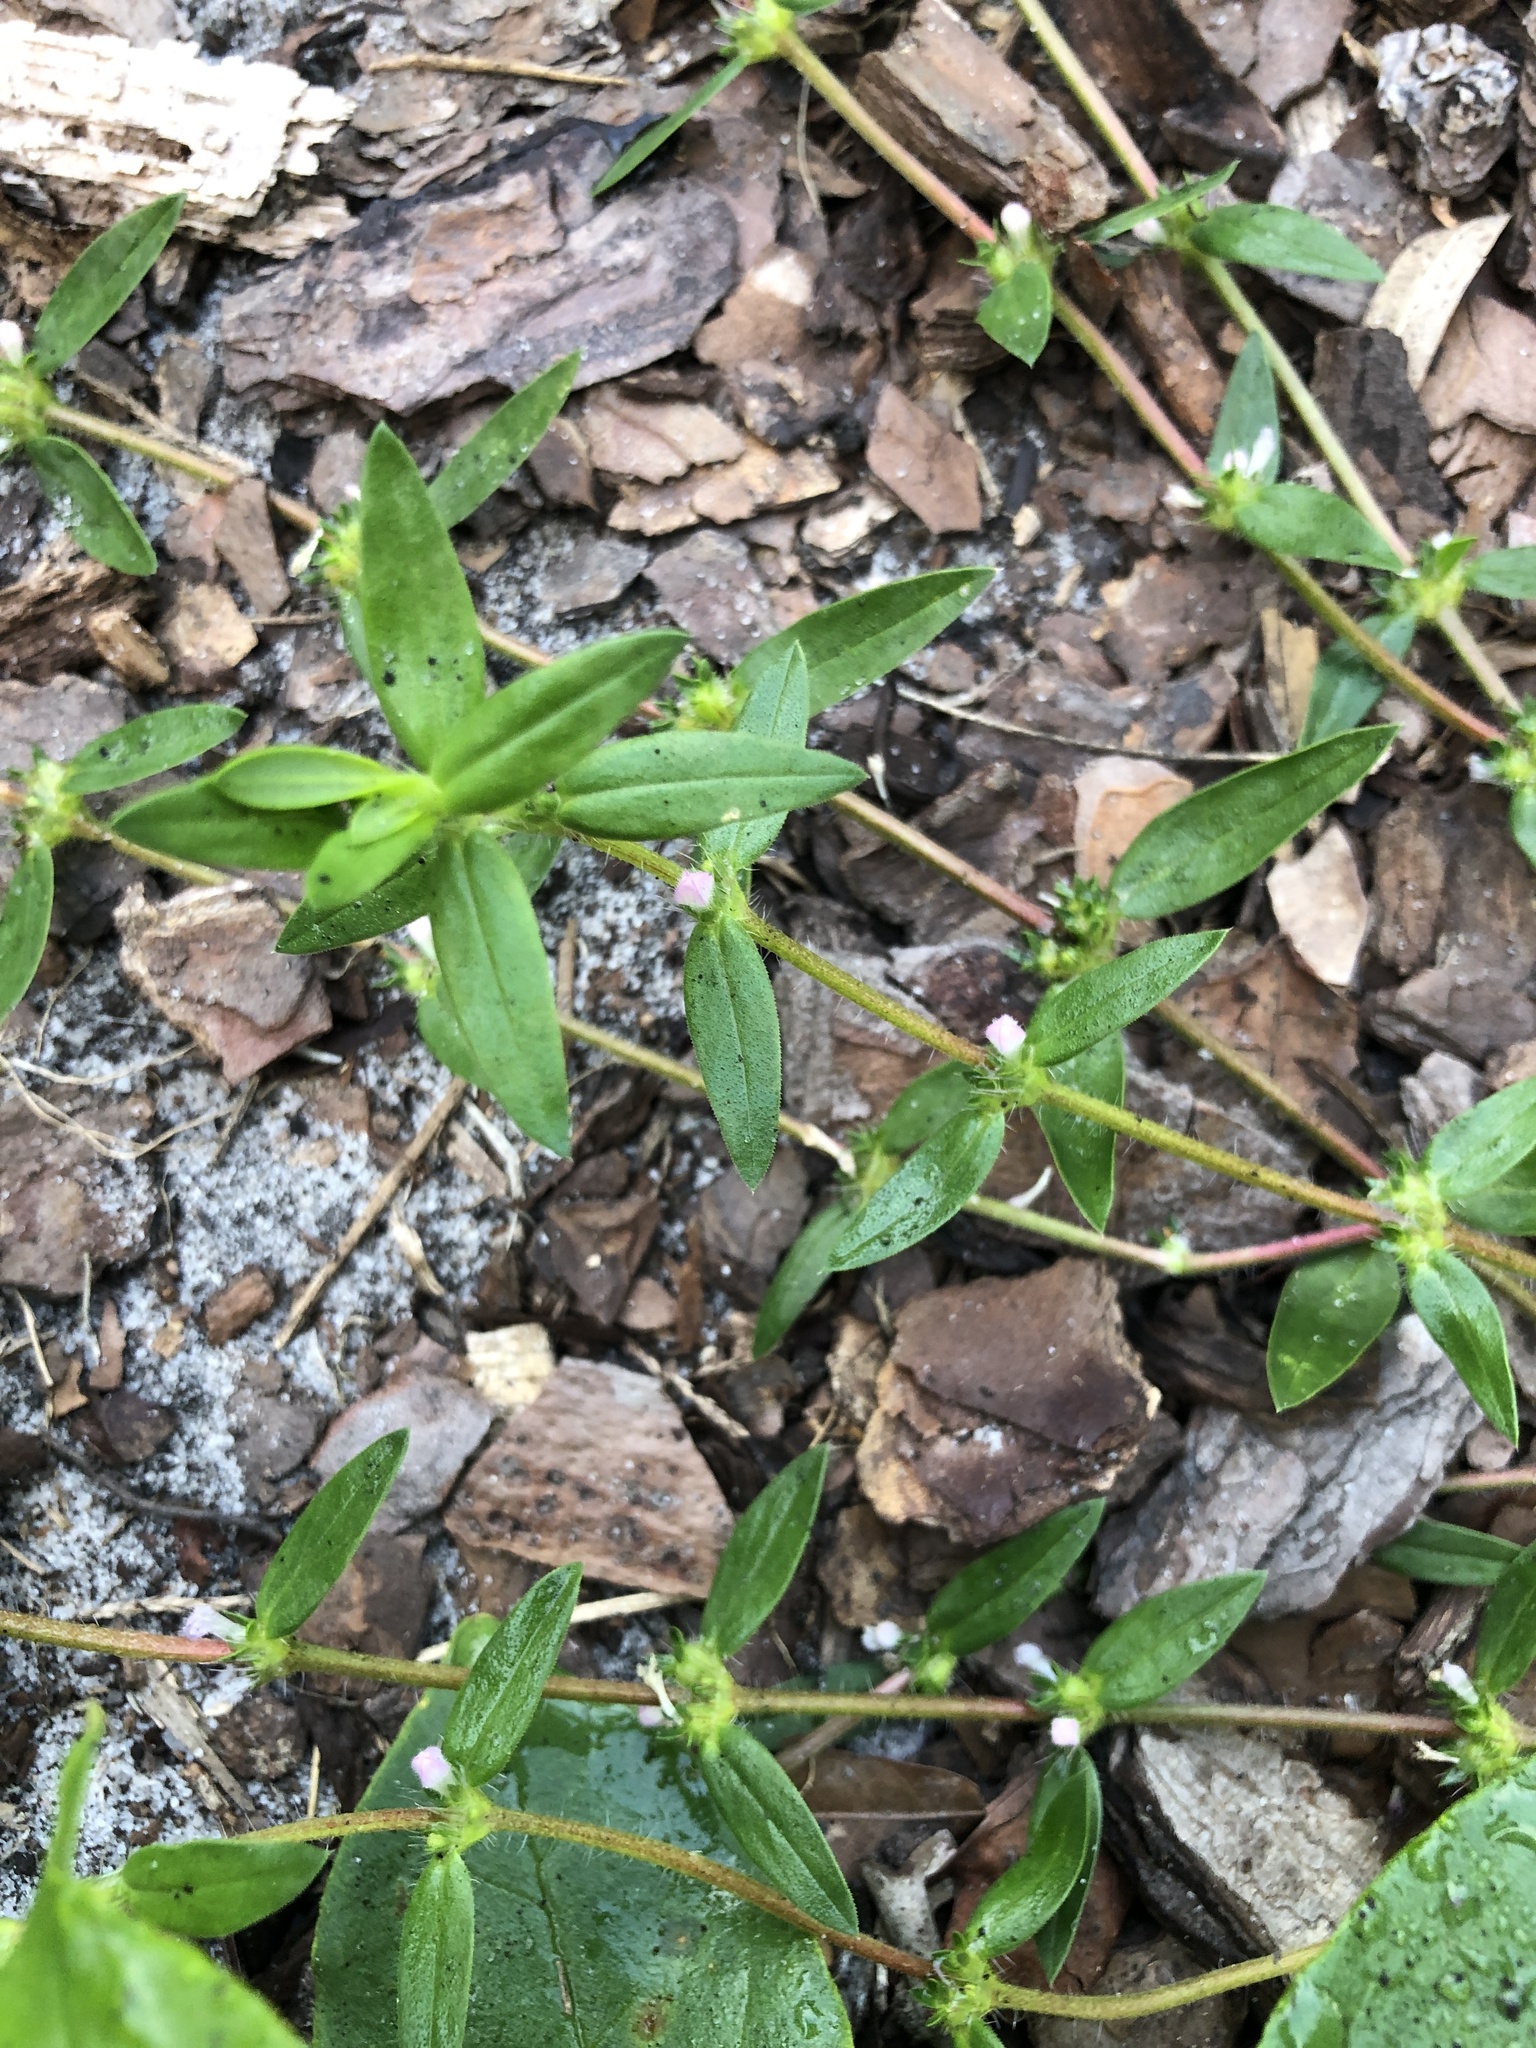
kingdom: Plantae
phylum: Tracheophyta
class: Magnoliopsida
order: Gentianales
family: Rubiaceae
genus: Hexasepalum
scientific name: Hexasepalum teres
